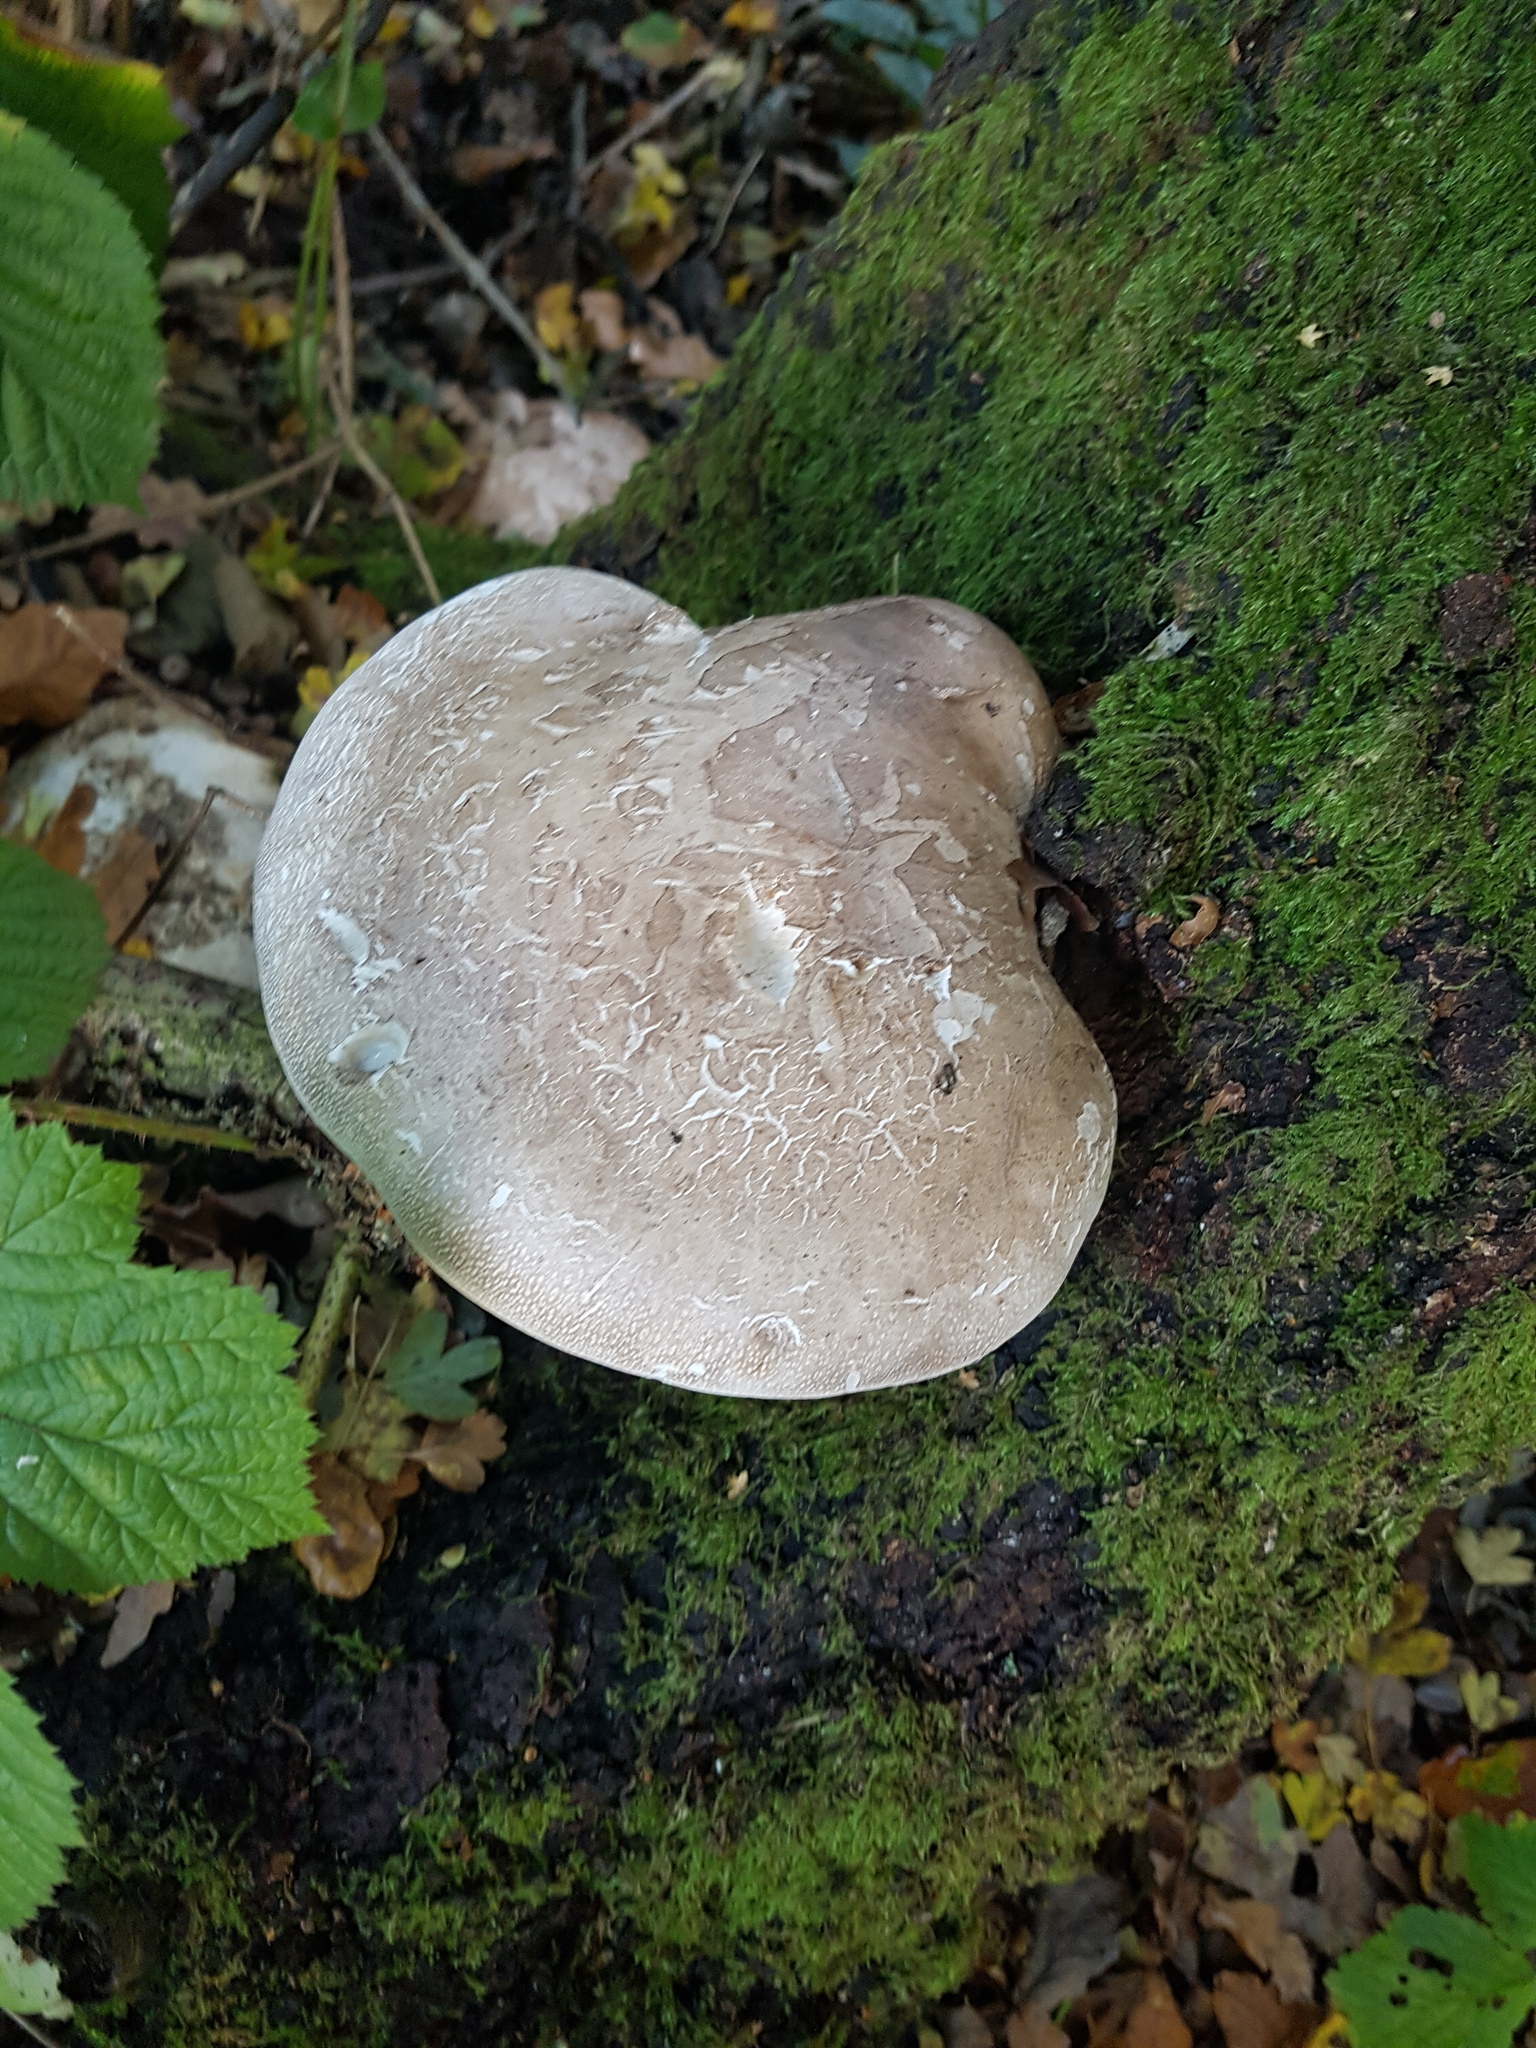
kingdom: Fungi
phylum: Basidiomycota
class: Agaricomycetes
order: Polyporales
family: Fomitopsidaceae
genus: Fomitopsis
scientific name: Fomitopsis betulina
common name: Birch polypore
